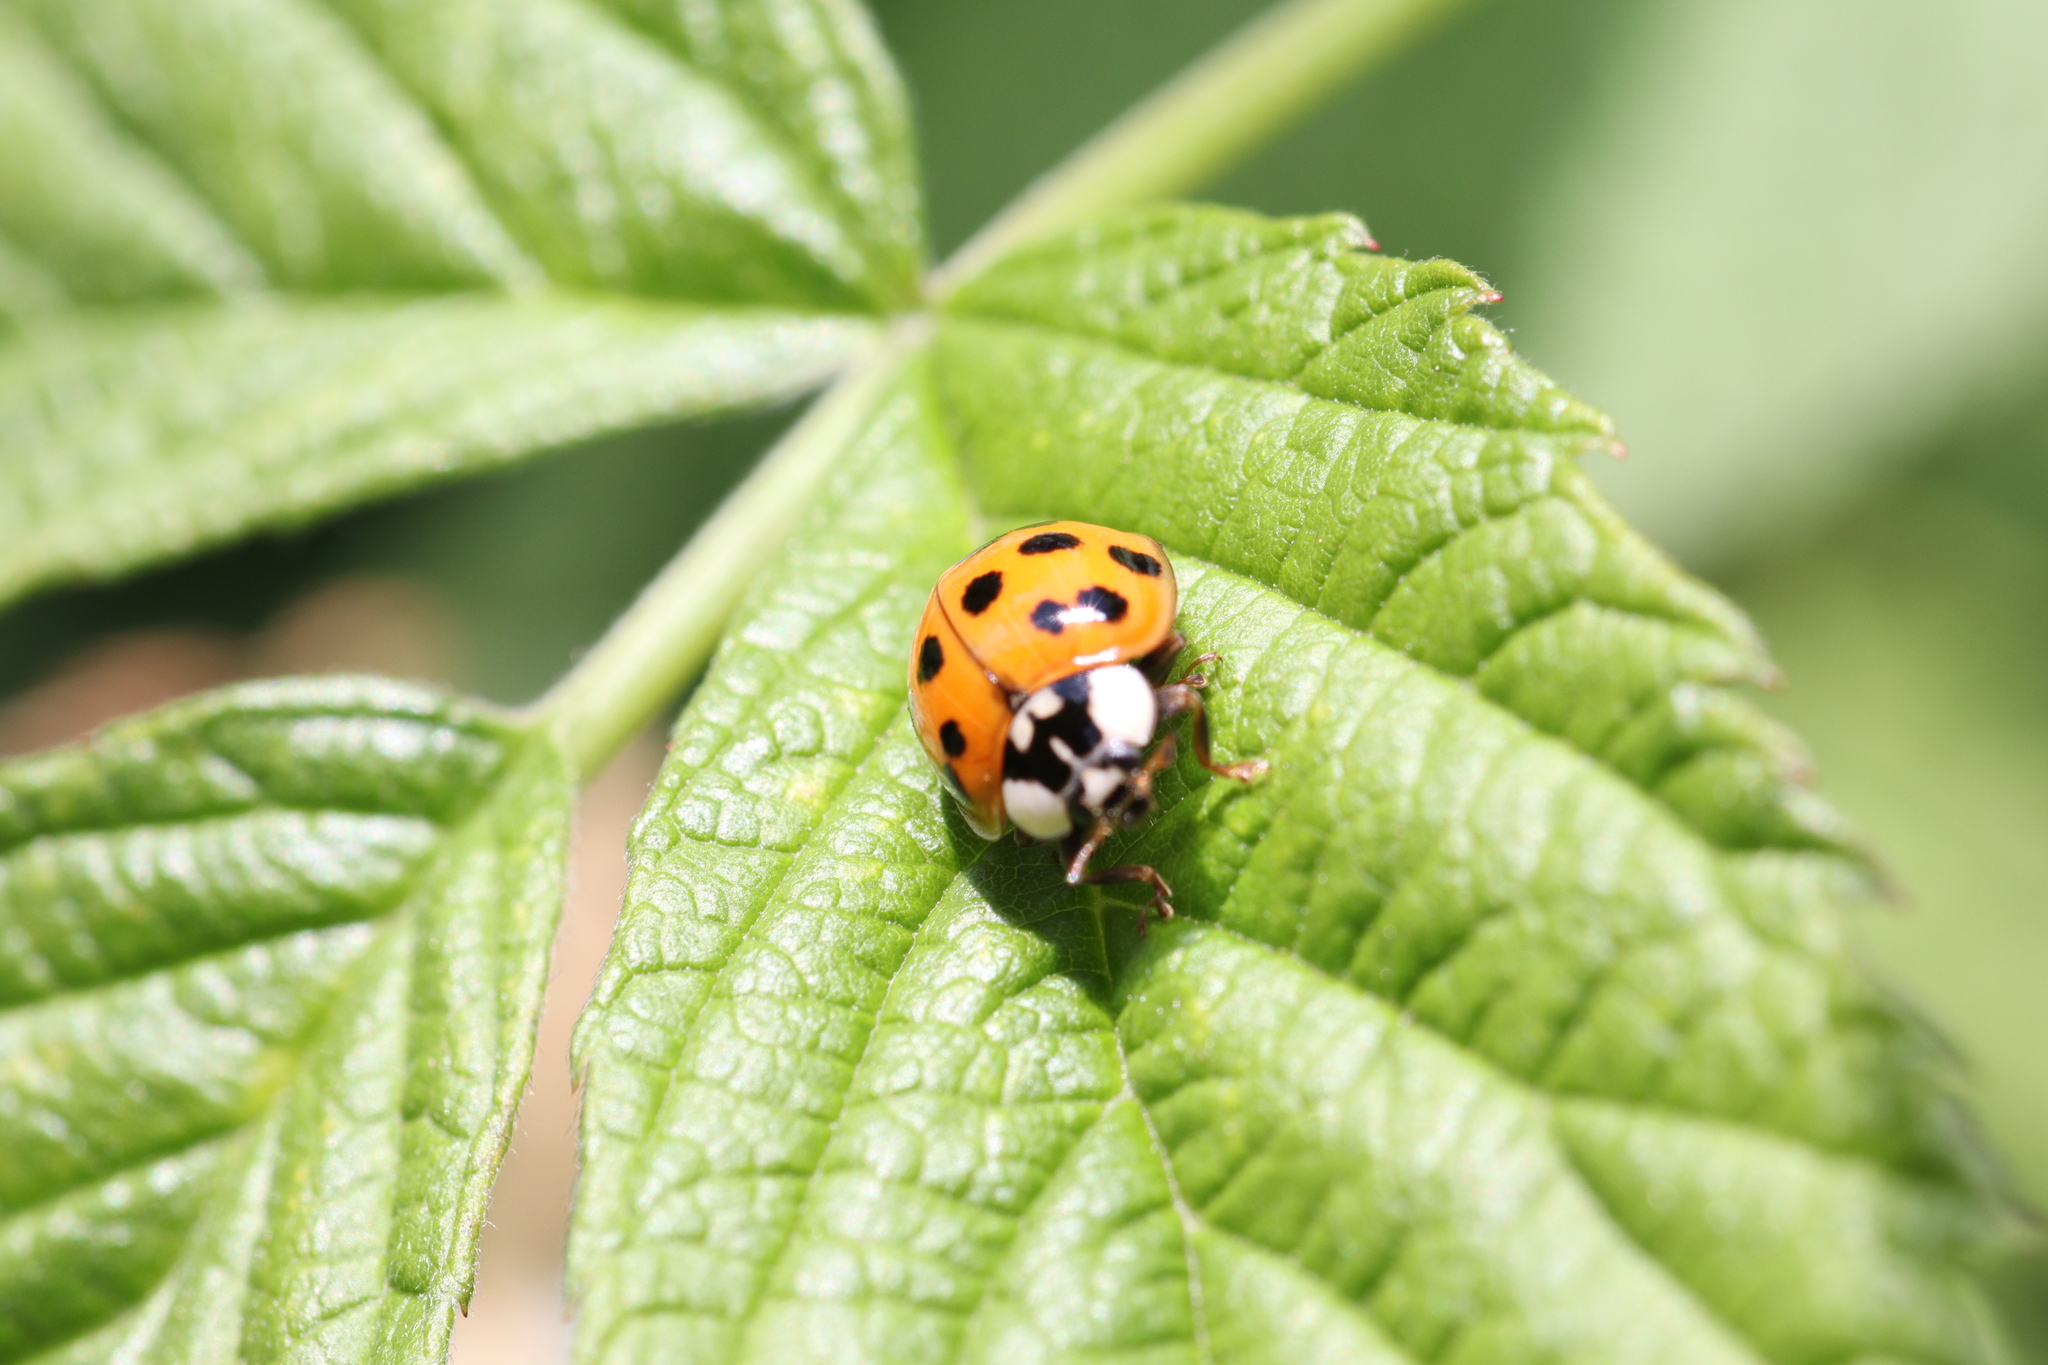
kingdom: Animalia
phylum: Arthropoda
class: Insecta
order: Coleoptera
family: Coccinellidae
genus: Harmonia
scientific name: Harmonia axyridis
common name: Harlequin ladybird
